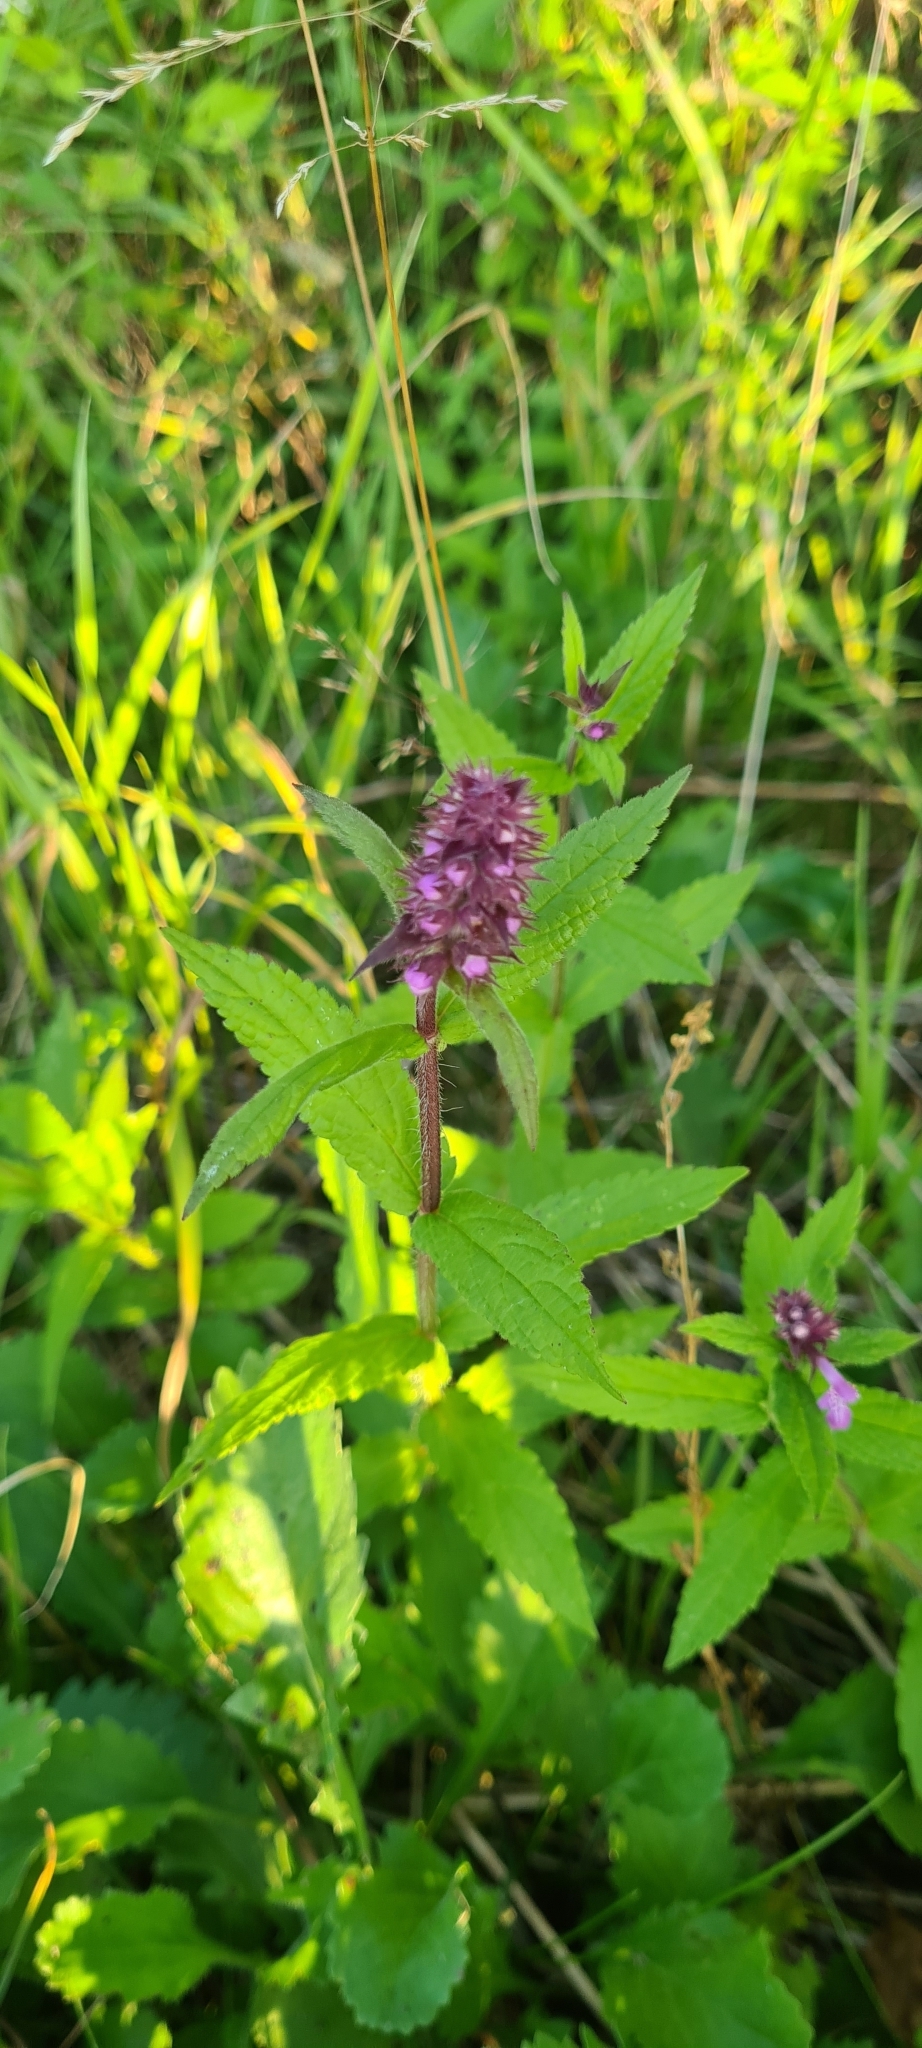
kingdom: Plantae
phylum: Tracheophyta
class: Magnoliopsida
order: Lamiales
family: Lamiaceae
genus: Stachys
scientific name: Stachys palustris
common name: Marsh woundwort
